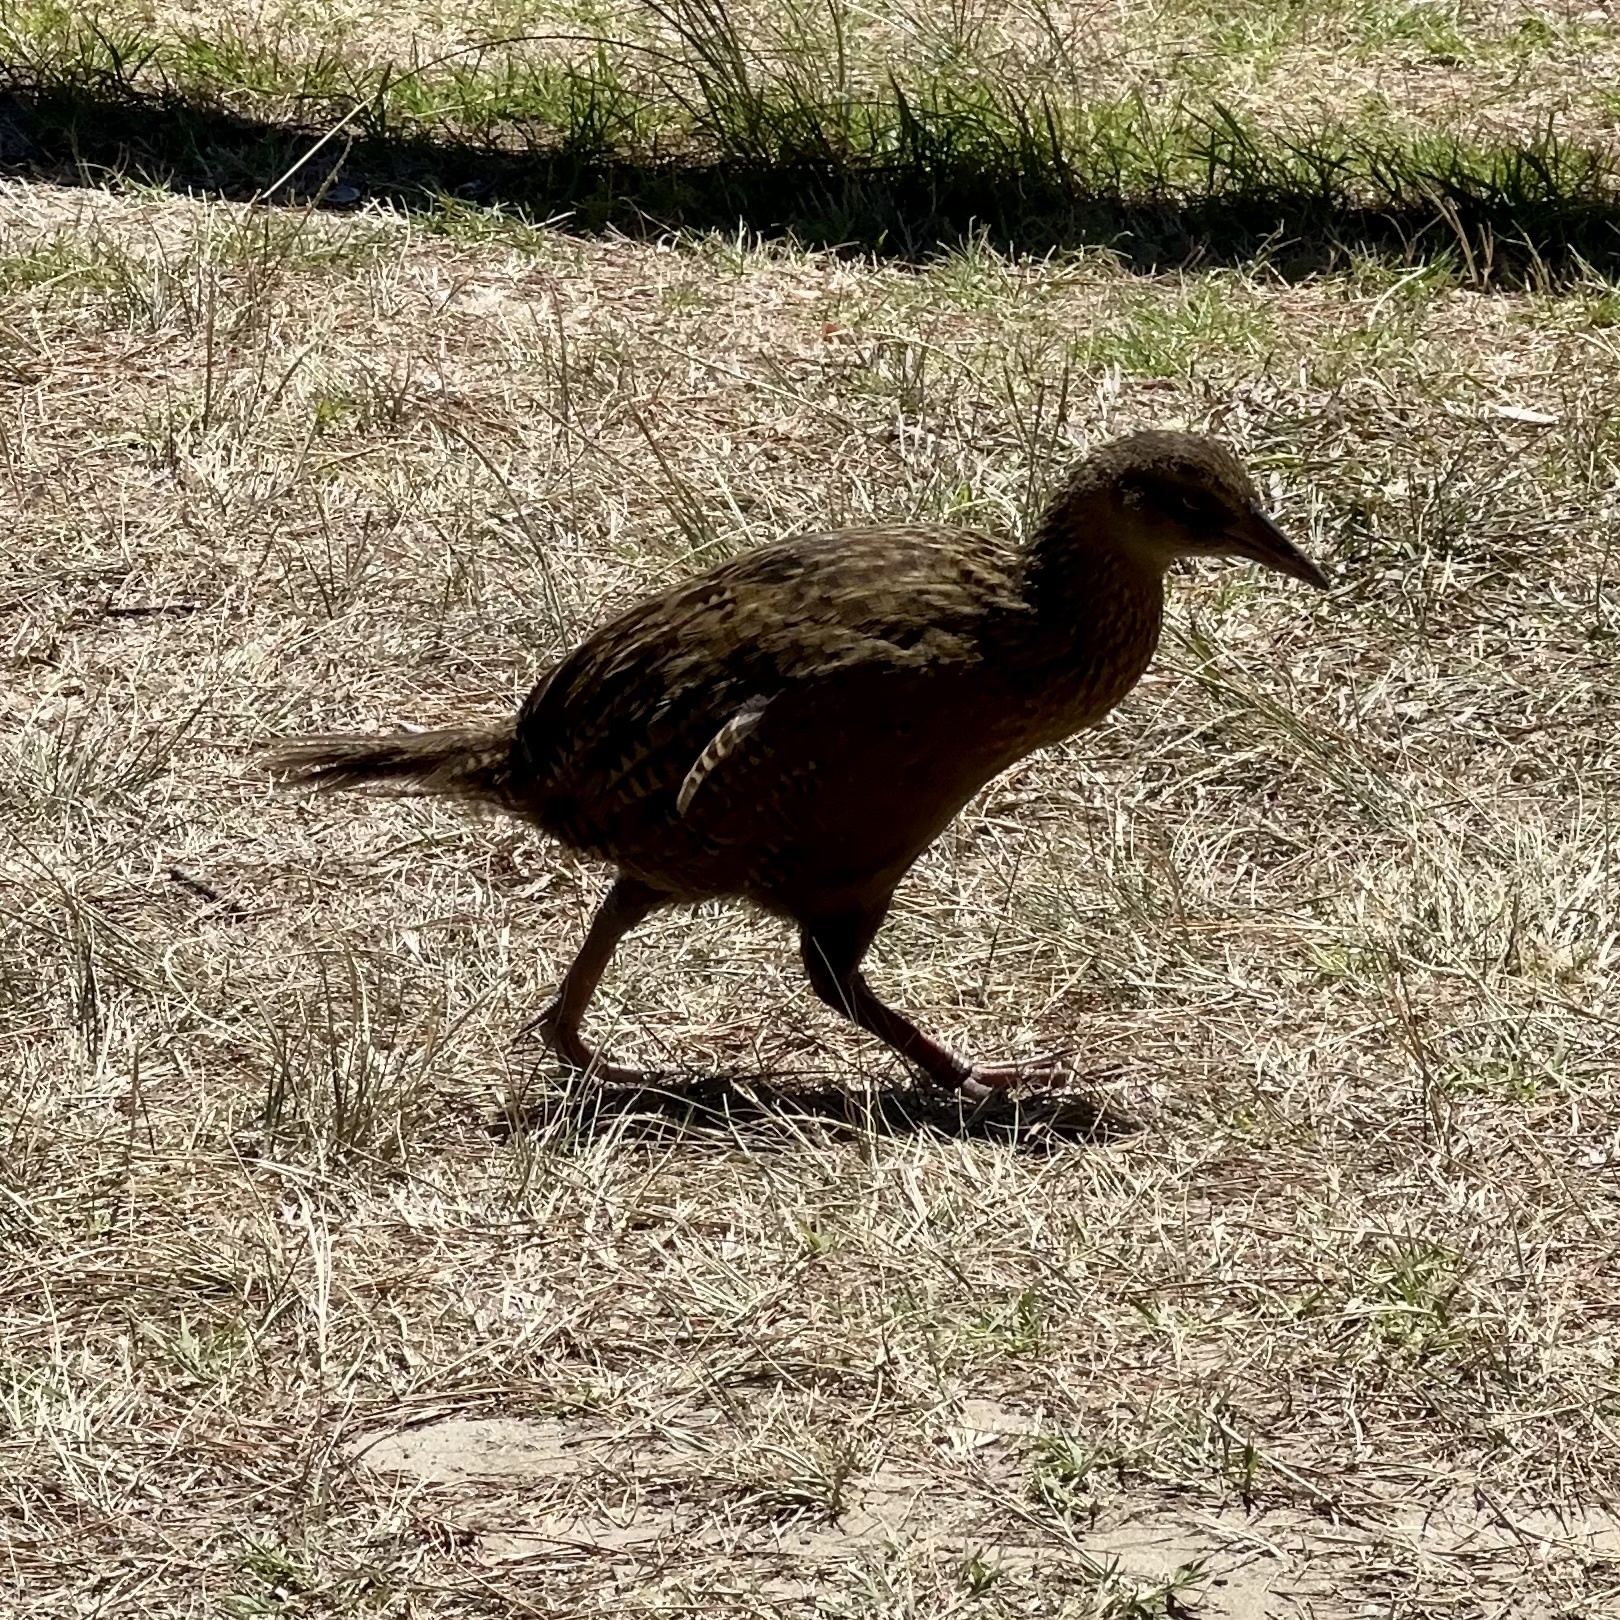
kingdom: Animalia
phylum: Chordata
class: Aves
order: Gruiformes
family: Rallidae
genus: Gallirallus
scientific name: Gallirallus australis
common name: Weka
